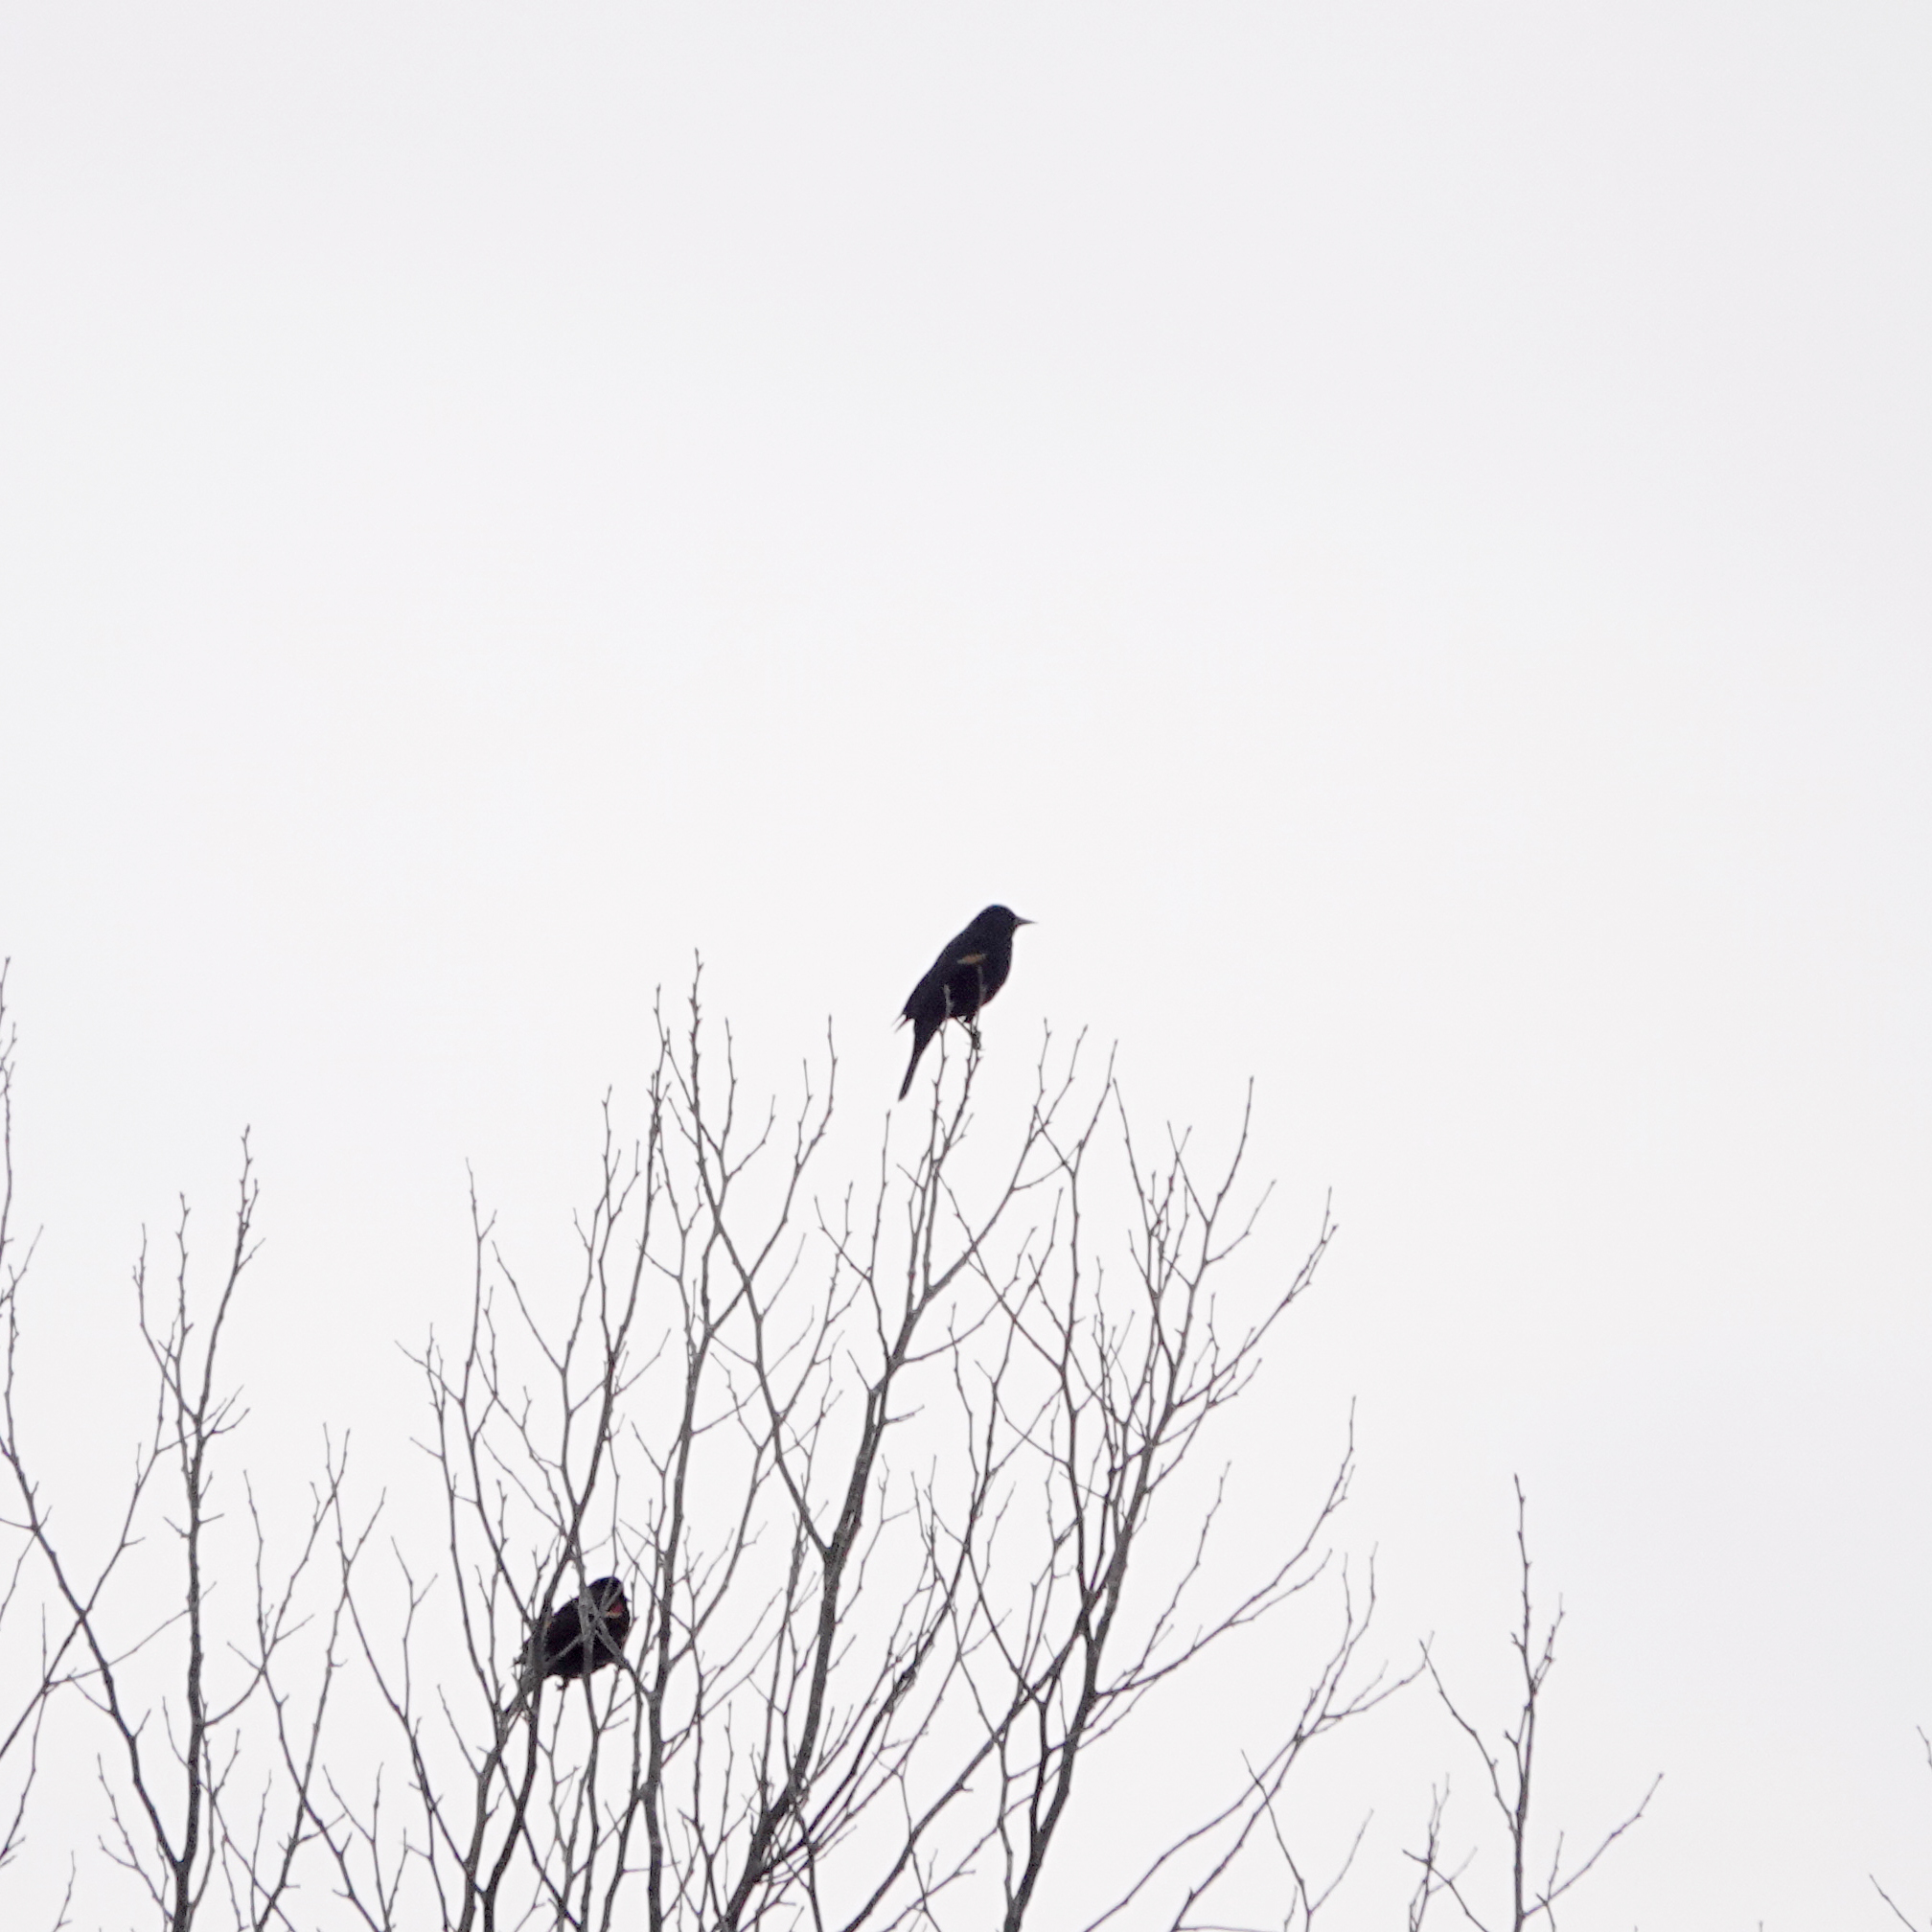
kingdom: Animalia
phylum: Chordata
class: Aves
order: Passeriformes
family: Icteridae
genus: Agelaius
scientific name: Agelaius phoeniceus
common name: Red-winged blackbird
